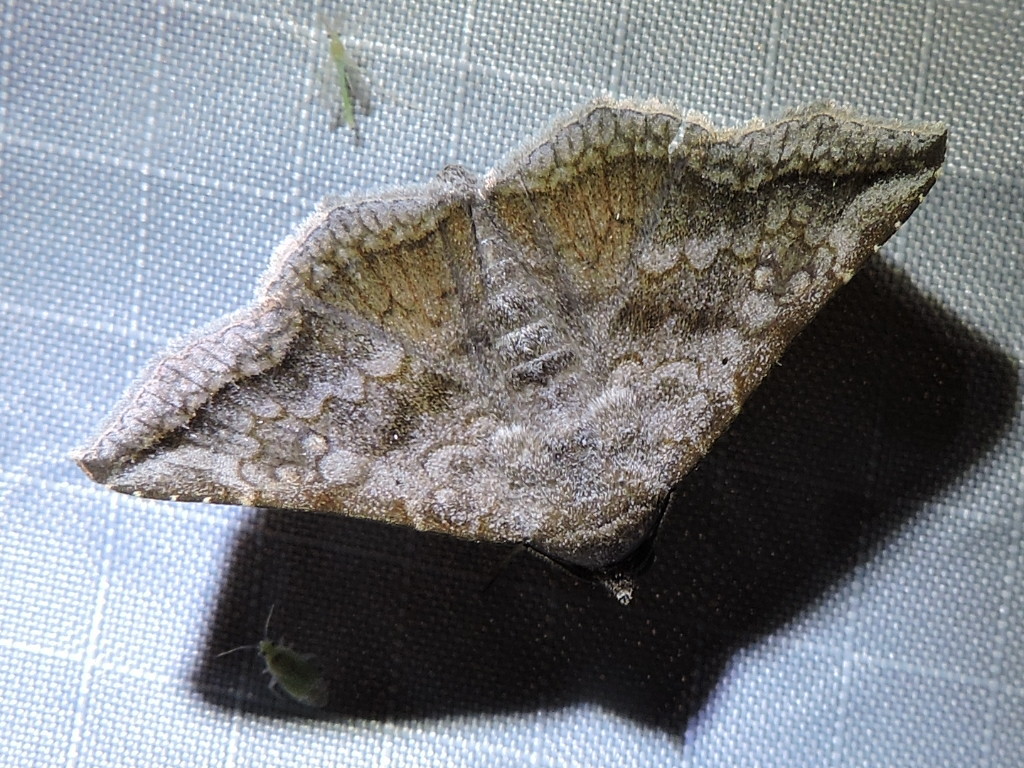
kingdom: Animalia
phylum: Arthropoda
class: Insecta
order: Lepidoptera
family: Erebidae
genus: Lesmone
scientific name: Lesmone hinna
